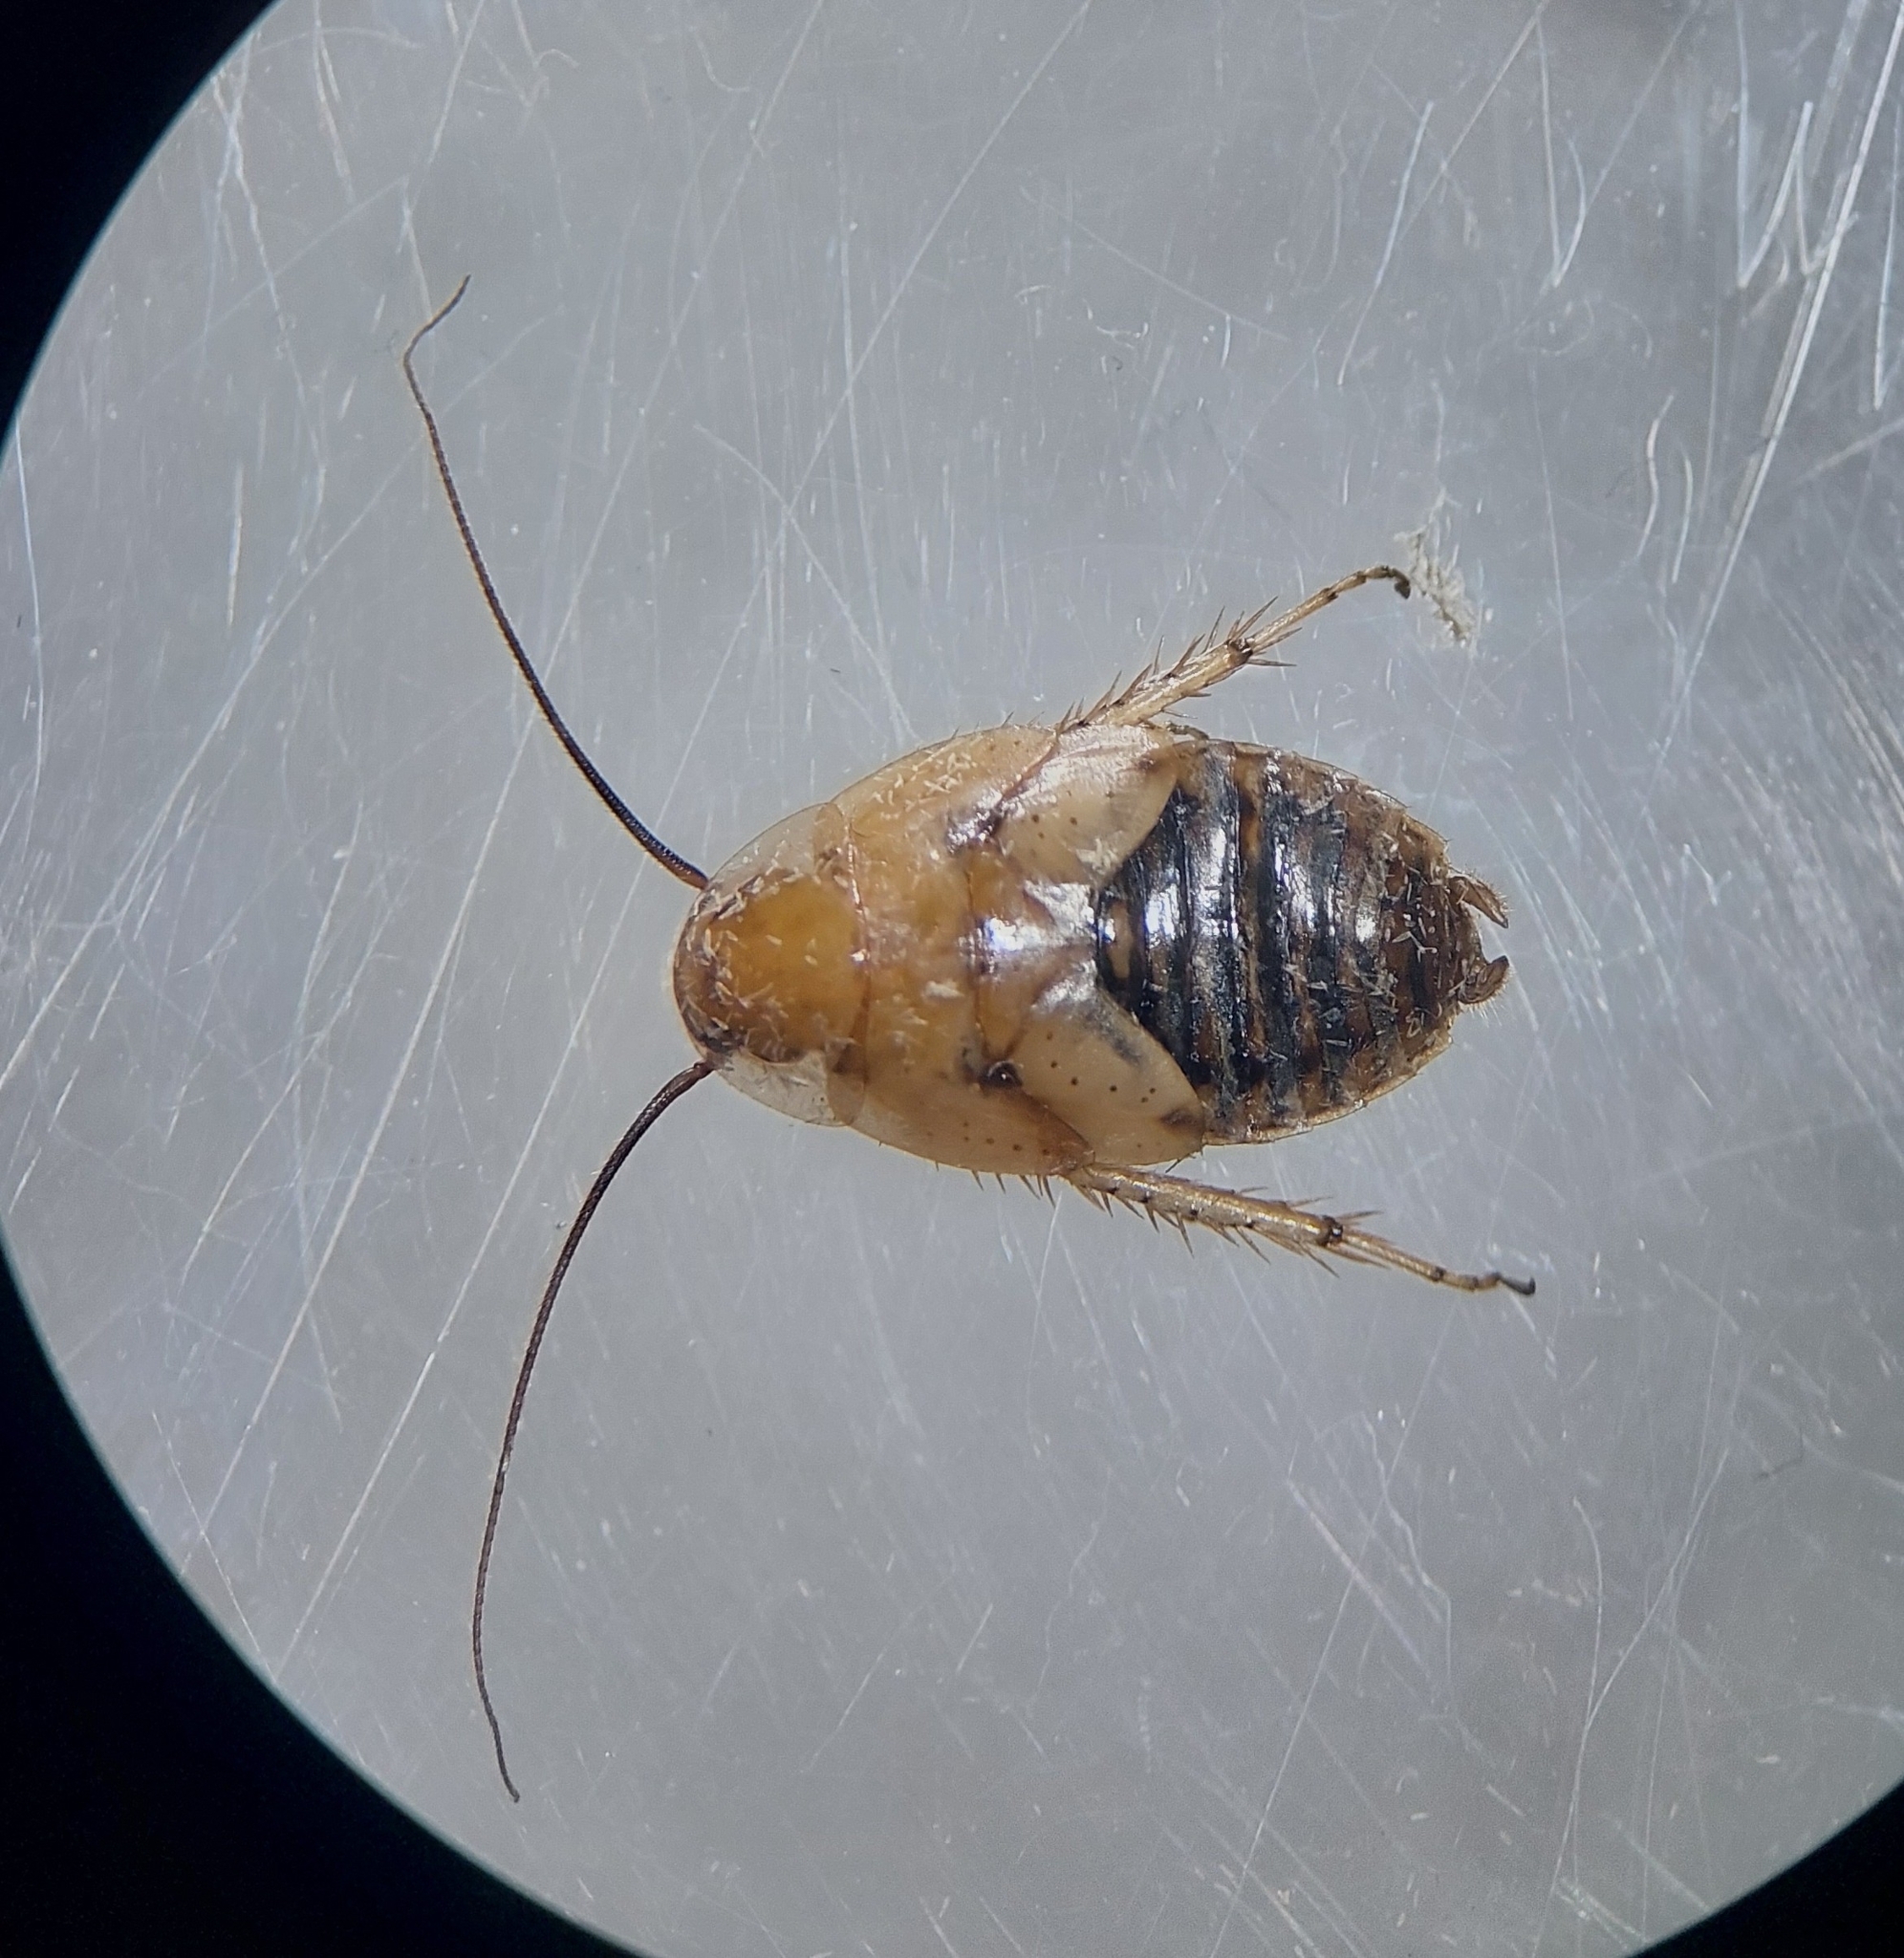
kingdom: Animalia
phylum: Arthropoda
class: Insecta
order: Blattodea
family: Ectobiidae
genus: Ectobius
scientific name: Ectobius vittiventris
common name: Garden cockroach
